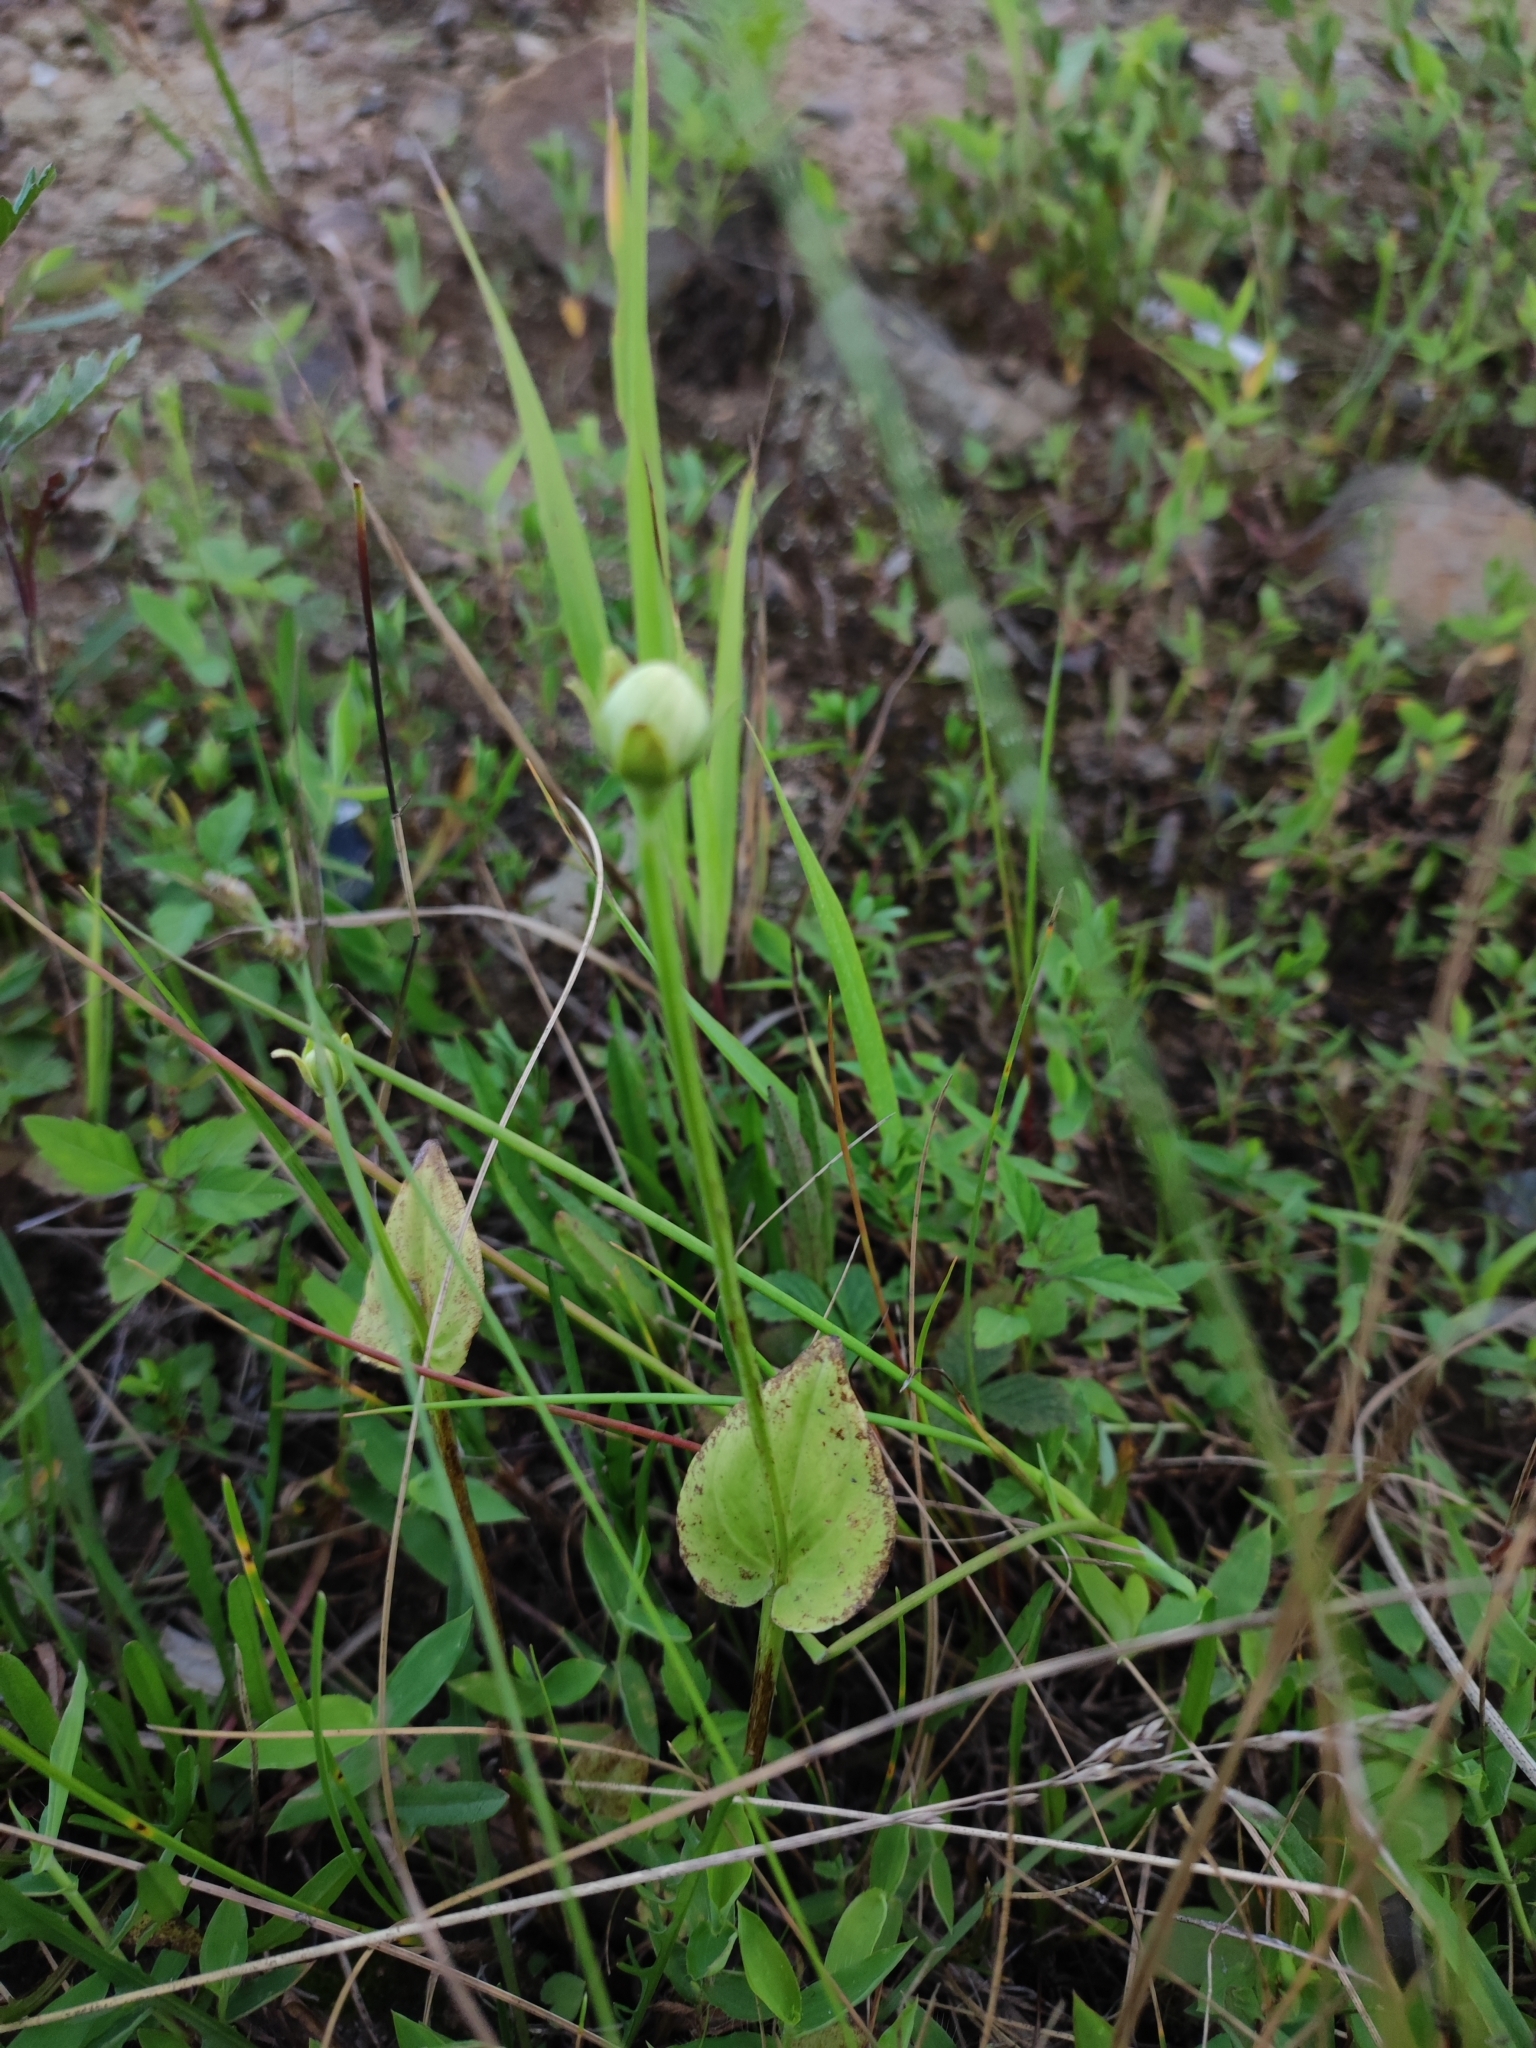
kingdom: Plantae
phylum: Tracheophyta
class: Magnoliopsida
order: Celastrales
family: Parnassiaceae
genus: Parnassia
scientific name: Parnassia palustris
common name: Grass-of-parnassus
